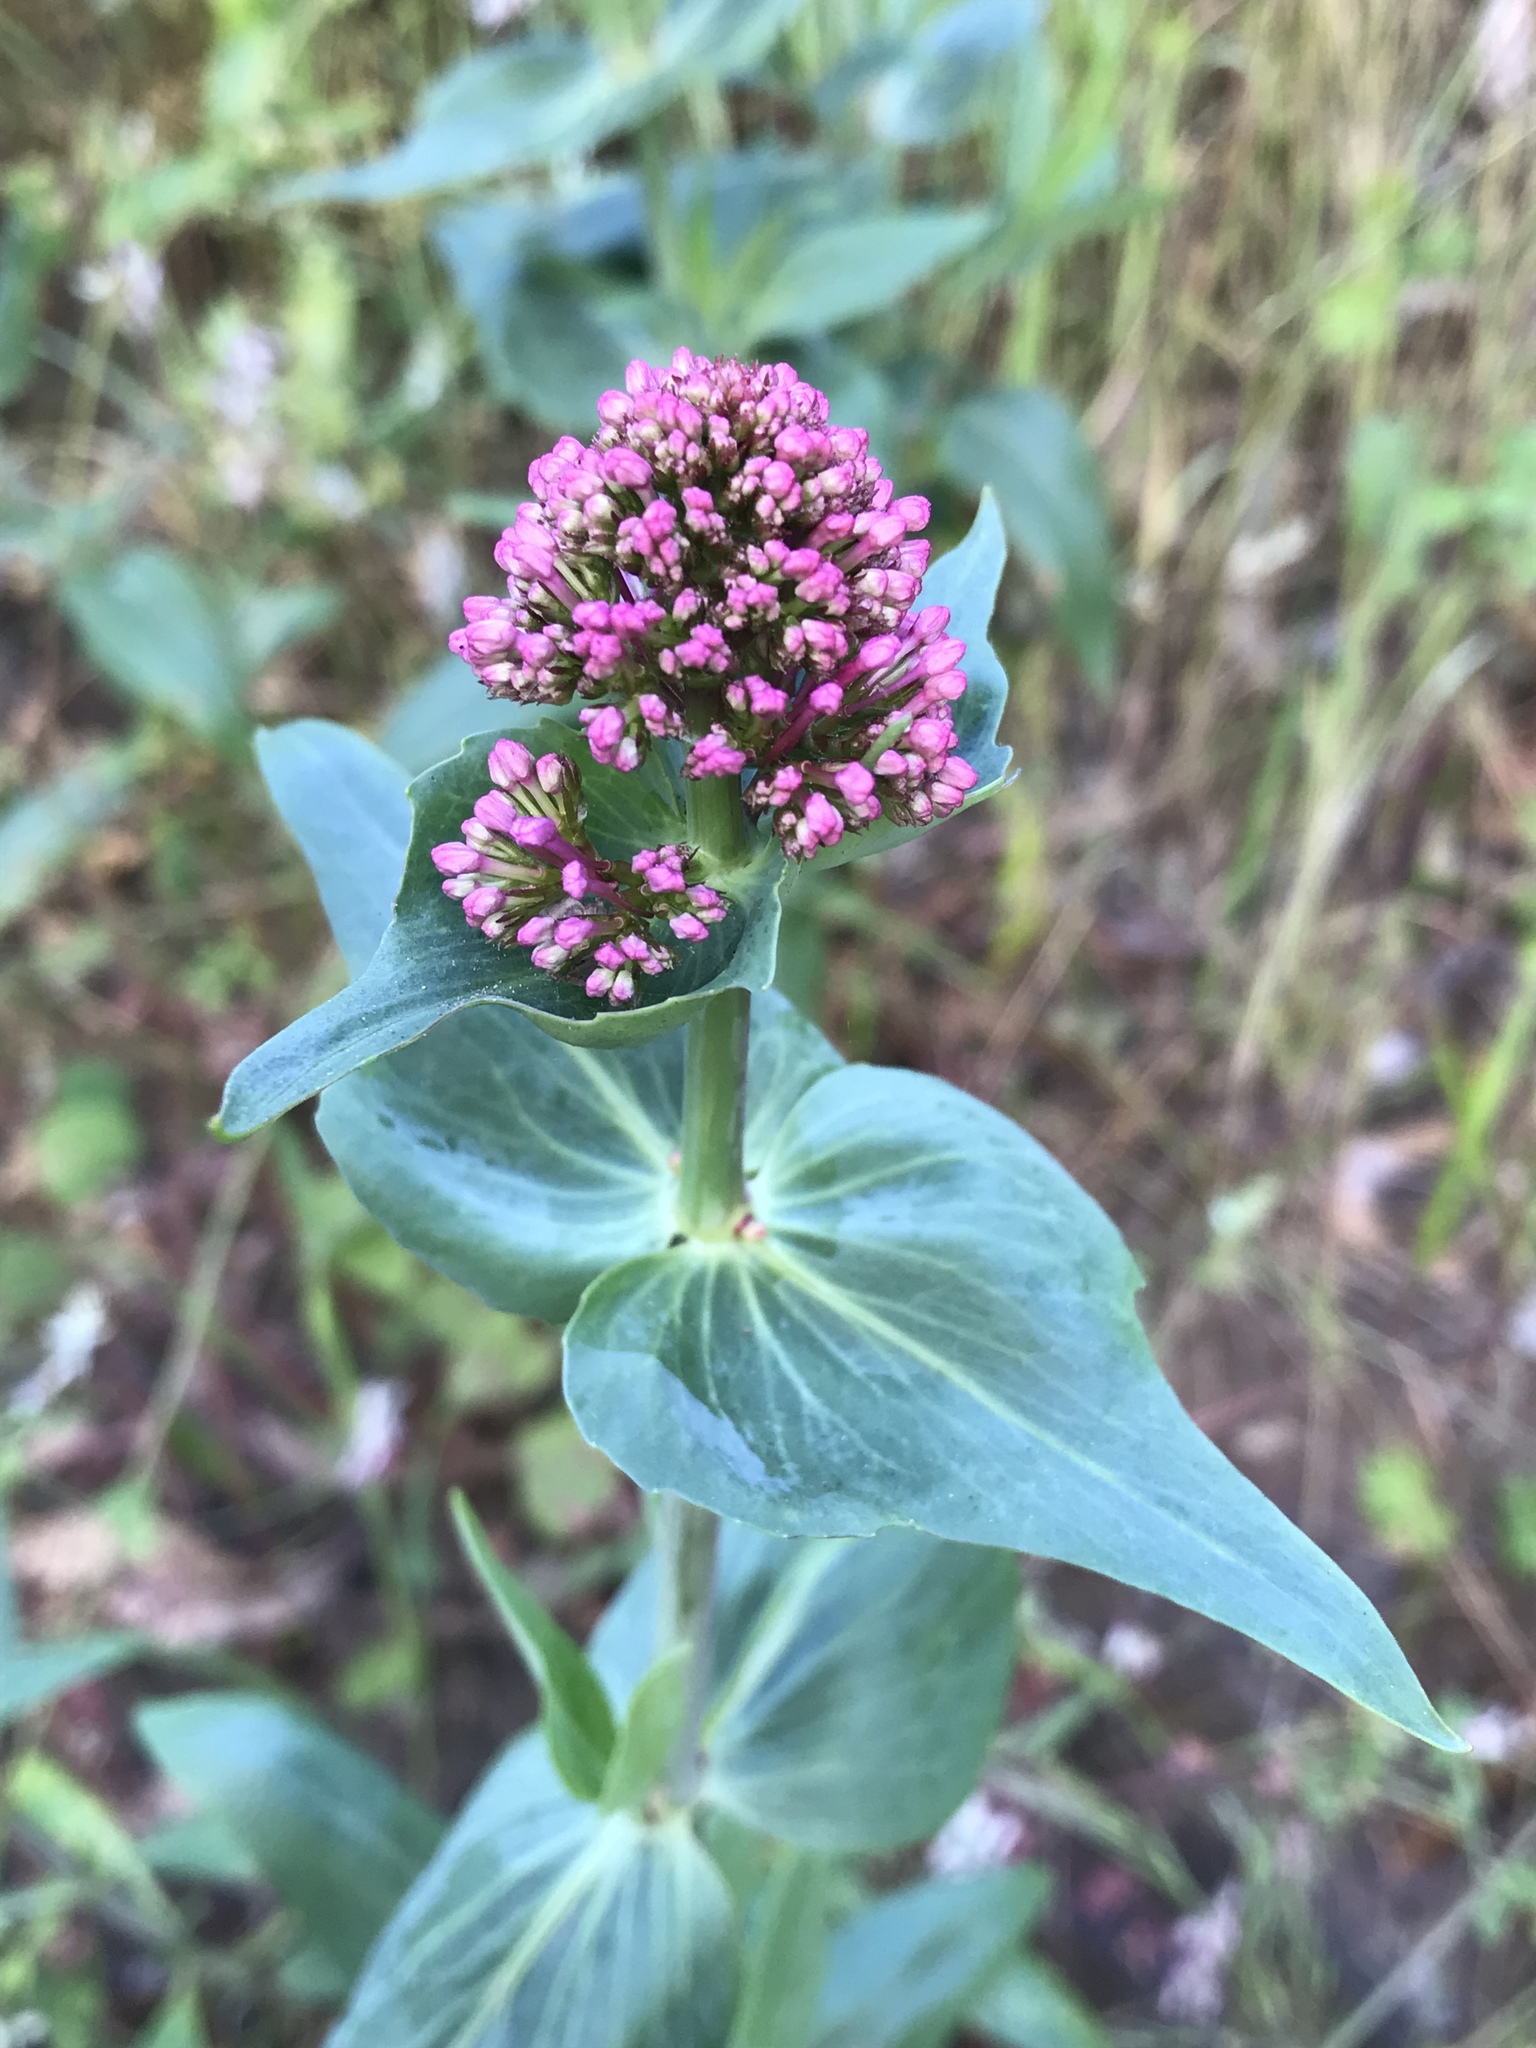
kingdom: Plantae
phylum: Tracheophyta
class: Magnoliopsida
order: Dipsacales
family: Caprifoliaceae
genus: Centranthus
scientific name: Centranthus ruber
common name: Red valerian
